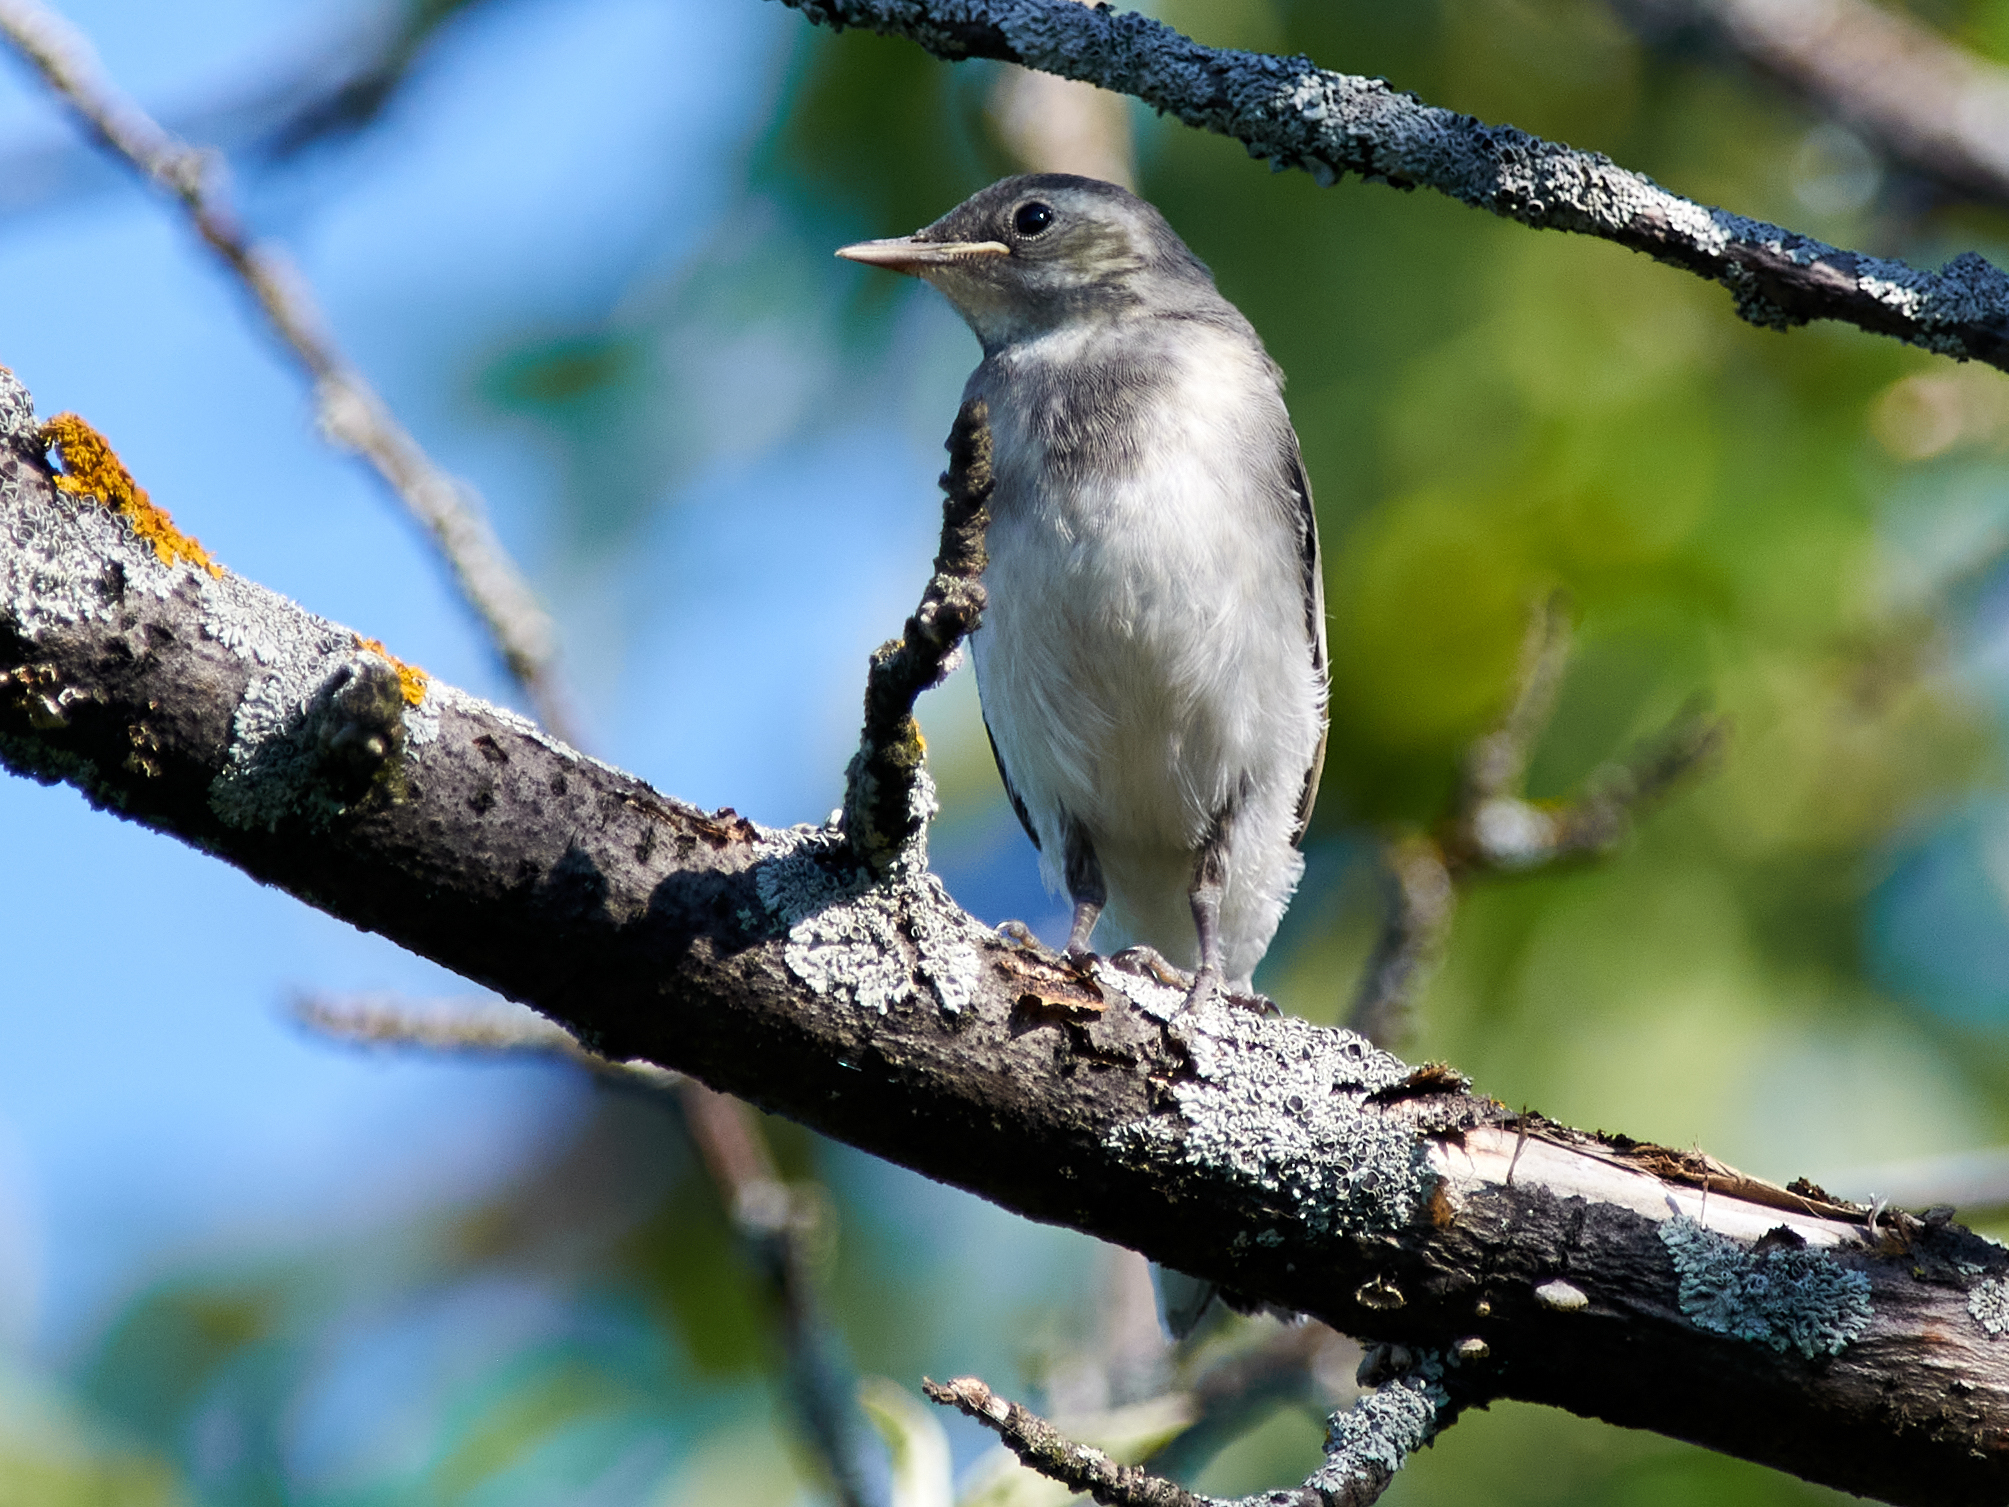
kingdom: Animalia
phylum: Chordata
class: Aves
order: Passeriformes
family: Motacillidae
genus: Motacilla
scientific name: Motacilla alba
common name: White wagtail
